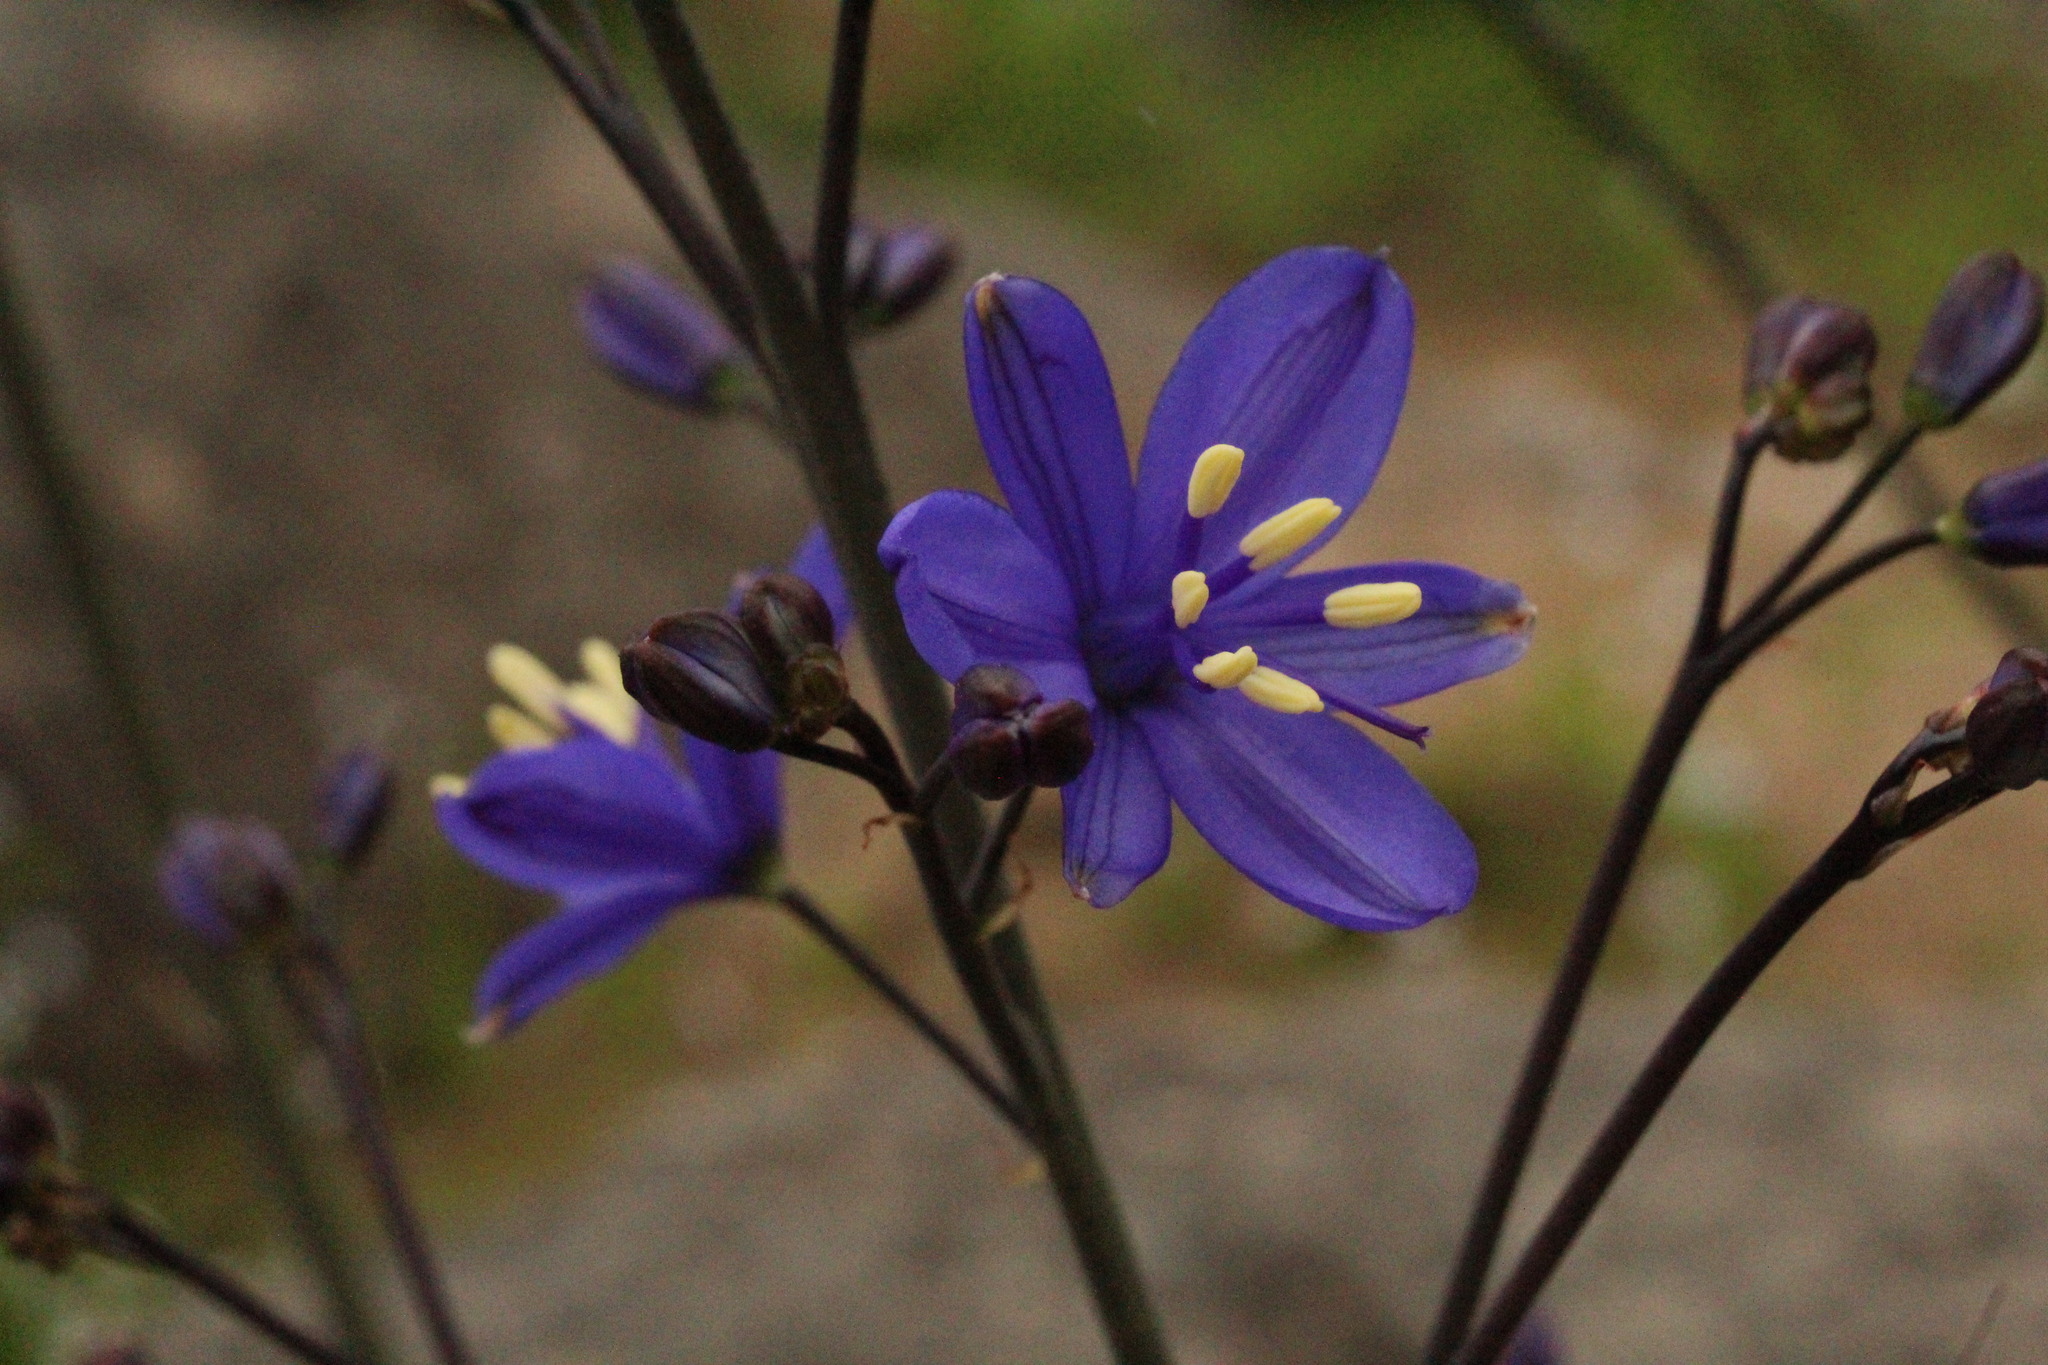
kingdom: Plantae
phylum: Tracheophyta
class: Liliopsida
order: Asparagales
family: Asphodelaceae
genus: Pasithea
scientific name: Pasithea caerulea
